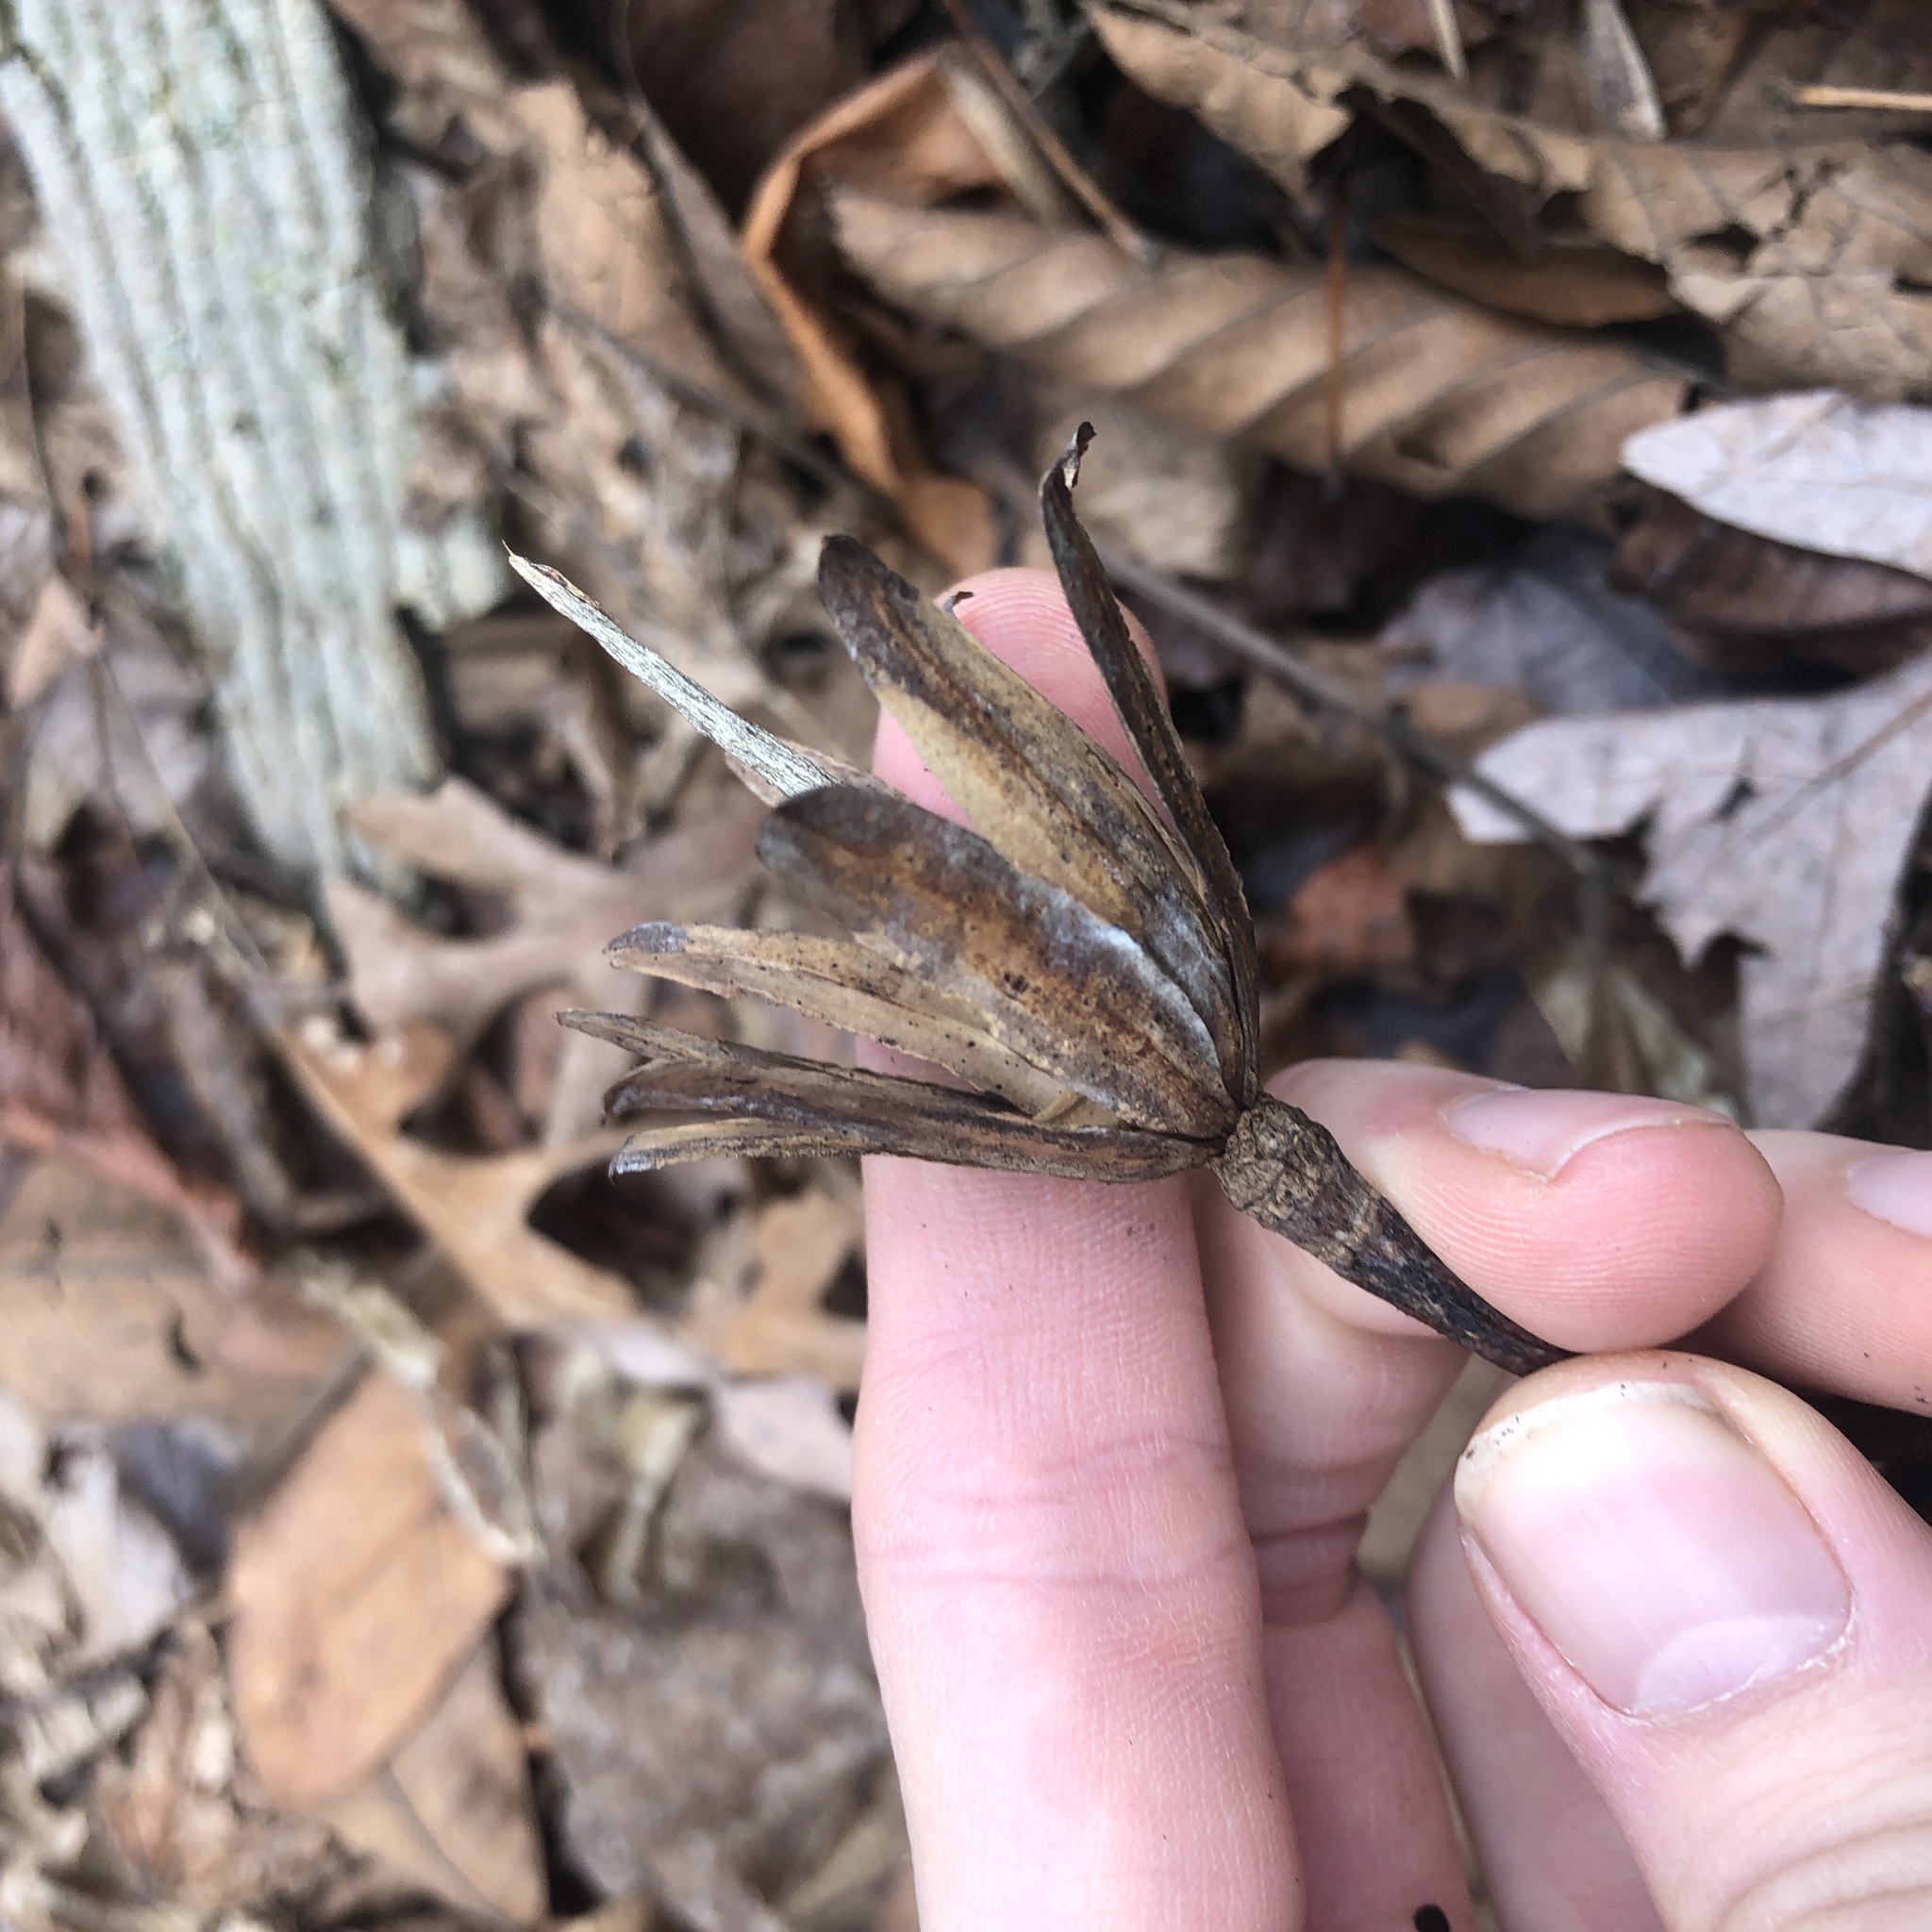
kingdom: Plantae
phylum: Tracheophyta
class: Magnoliopsida
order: Magnoliales
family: Magnoliaceae
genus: Liriodendron
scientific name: Liriodendron tulipifera
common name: Tulip tree
